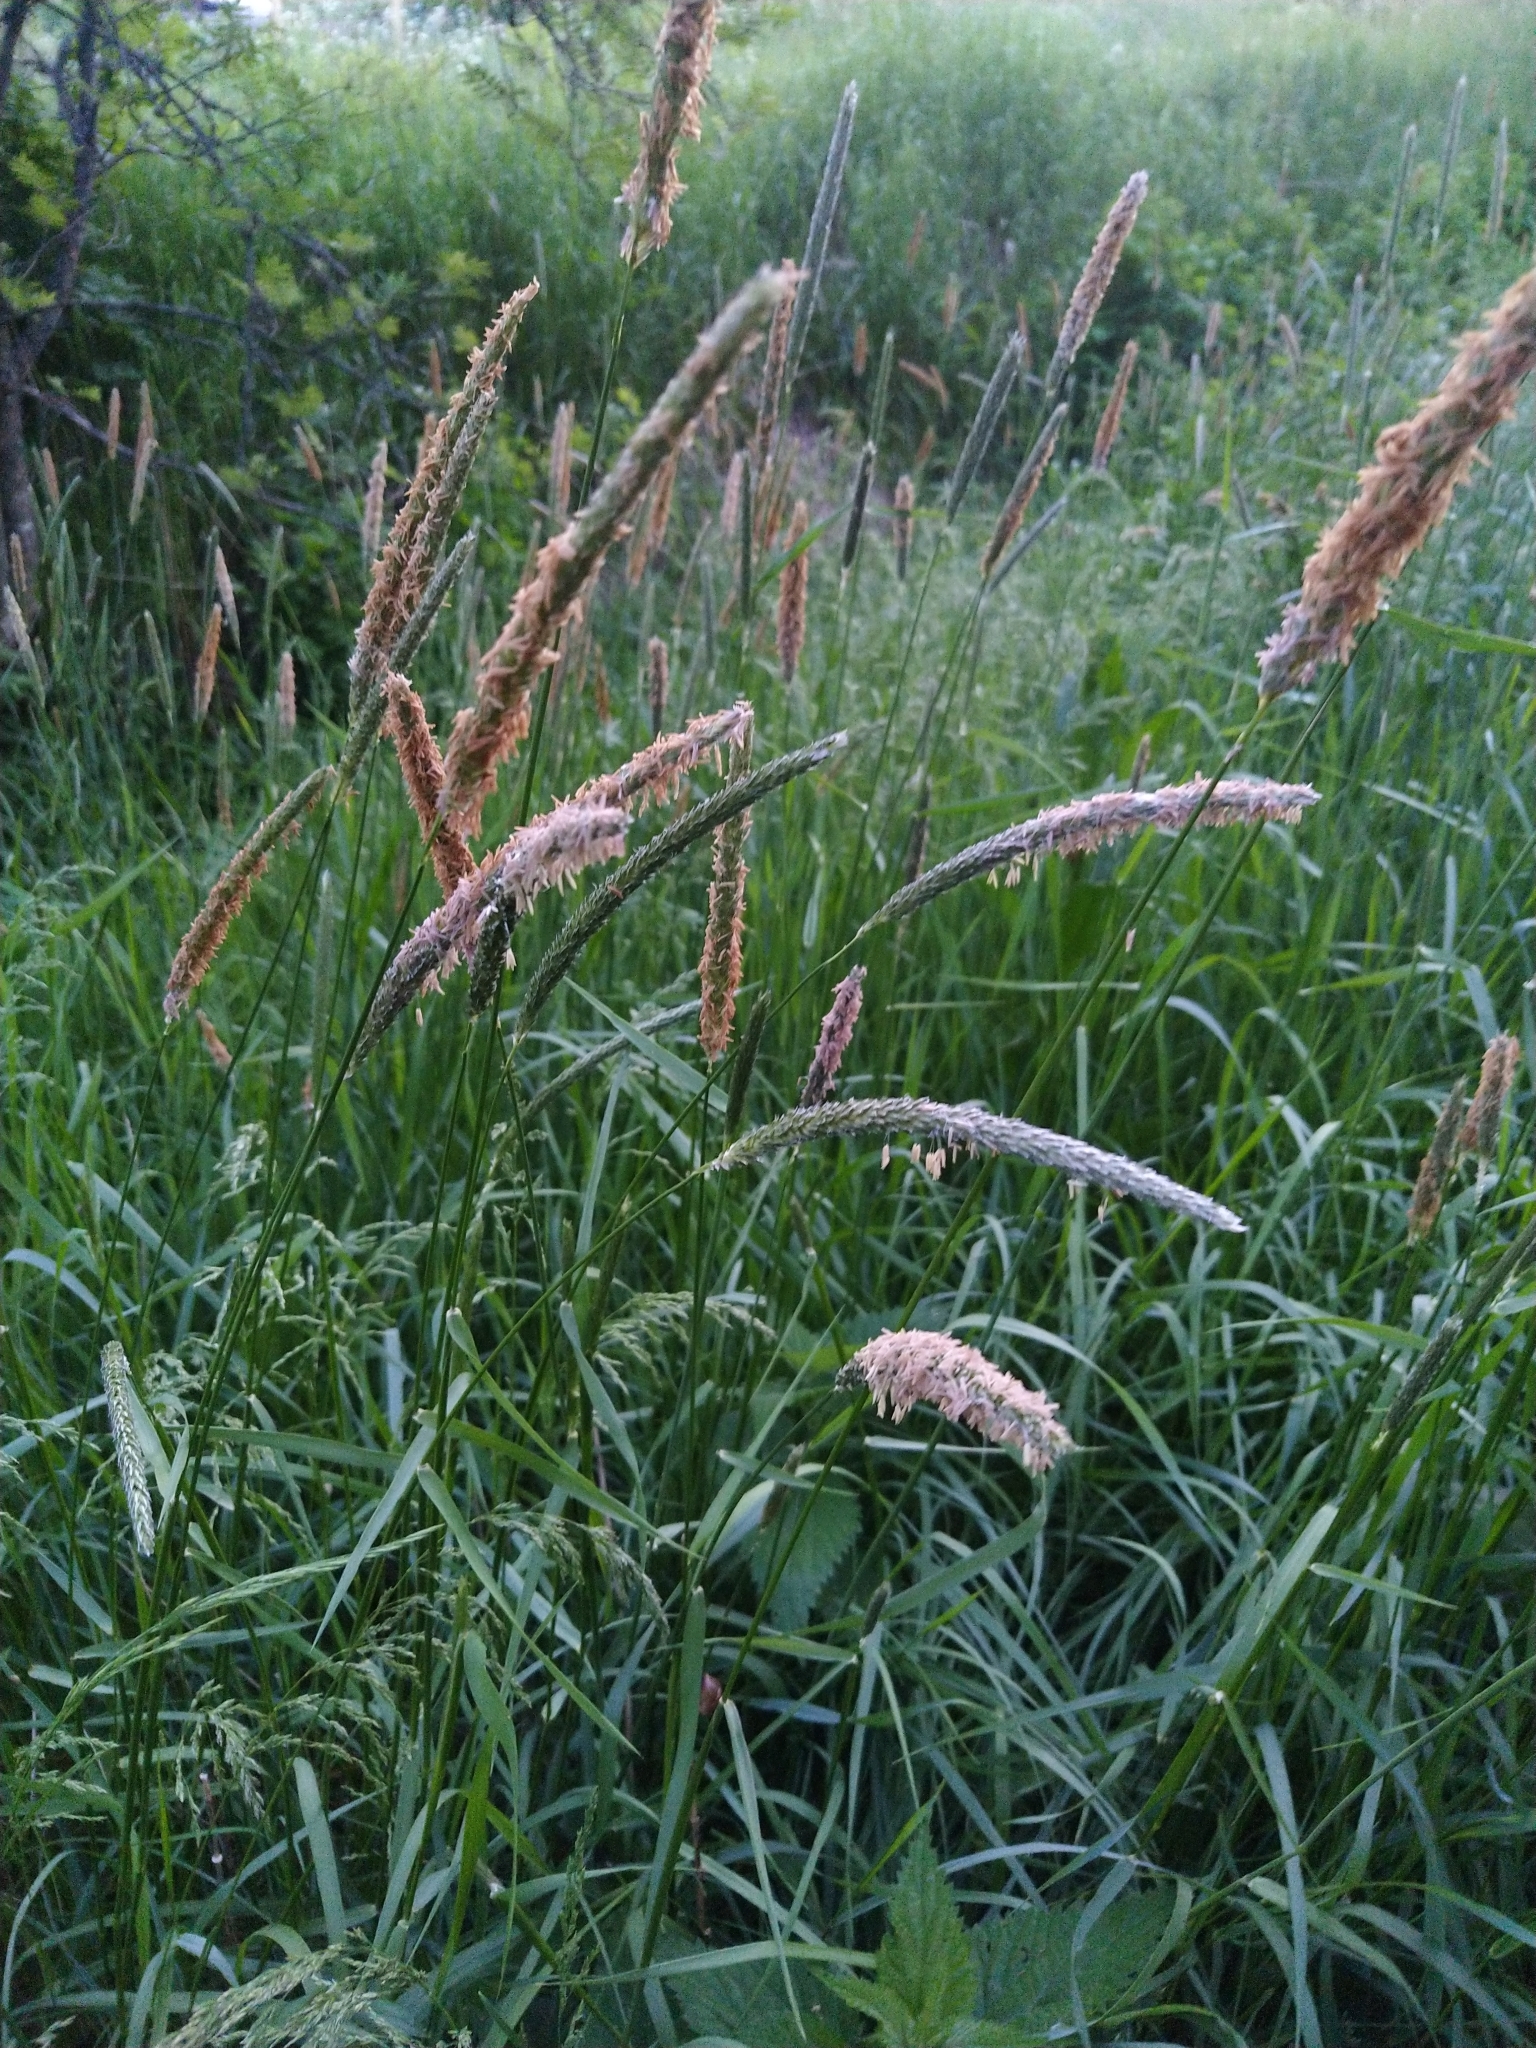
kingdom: Plantae
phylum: Tracheophyta
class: Liliopsida
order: Poales
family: Poaceae
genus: Alopecurus
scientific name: Alopecurus pratensis
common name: Meadow foxtail
